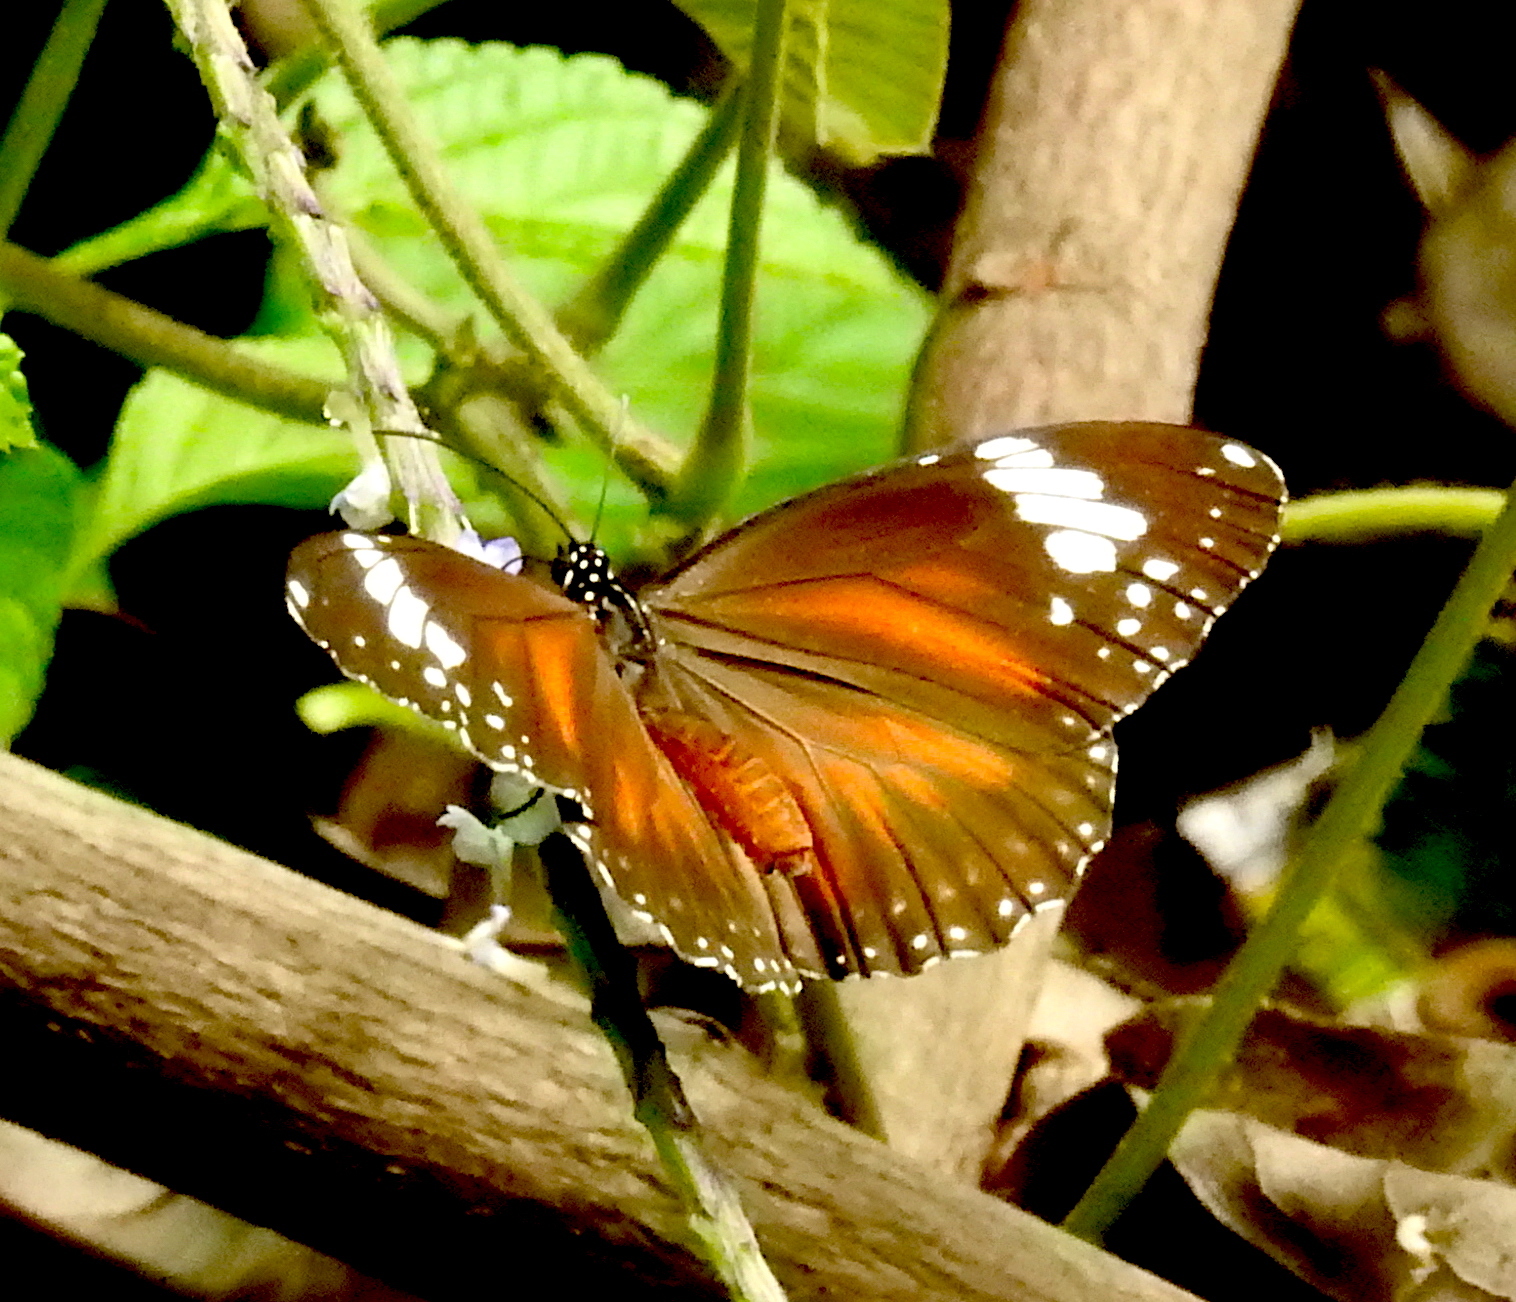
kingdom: Animalia
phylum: Arthropoda
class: Insecta
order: Lepidoptera
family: Nymphalidae
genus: Danaus
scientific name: Danaus affinis
